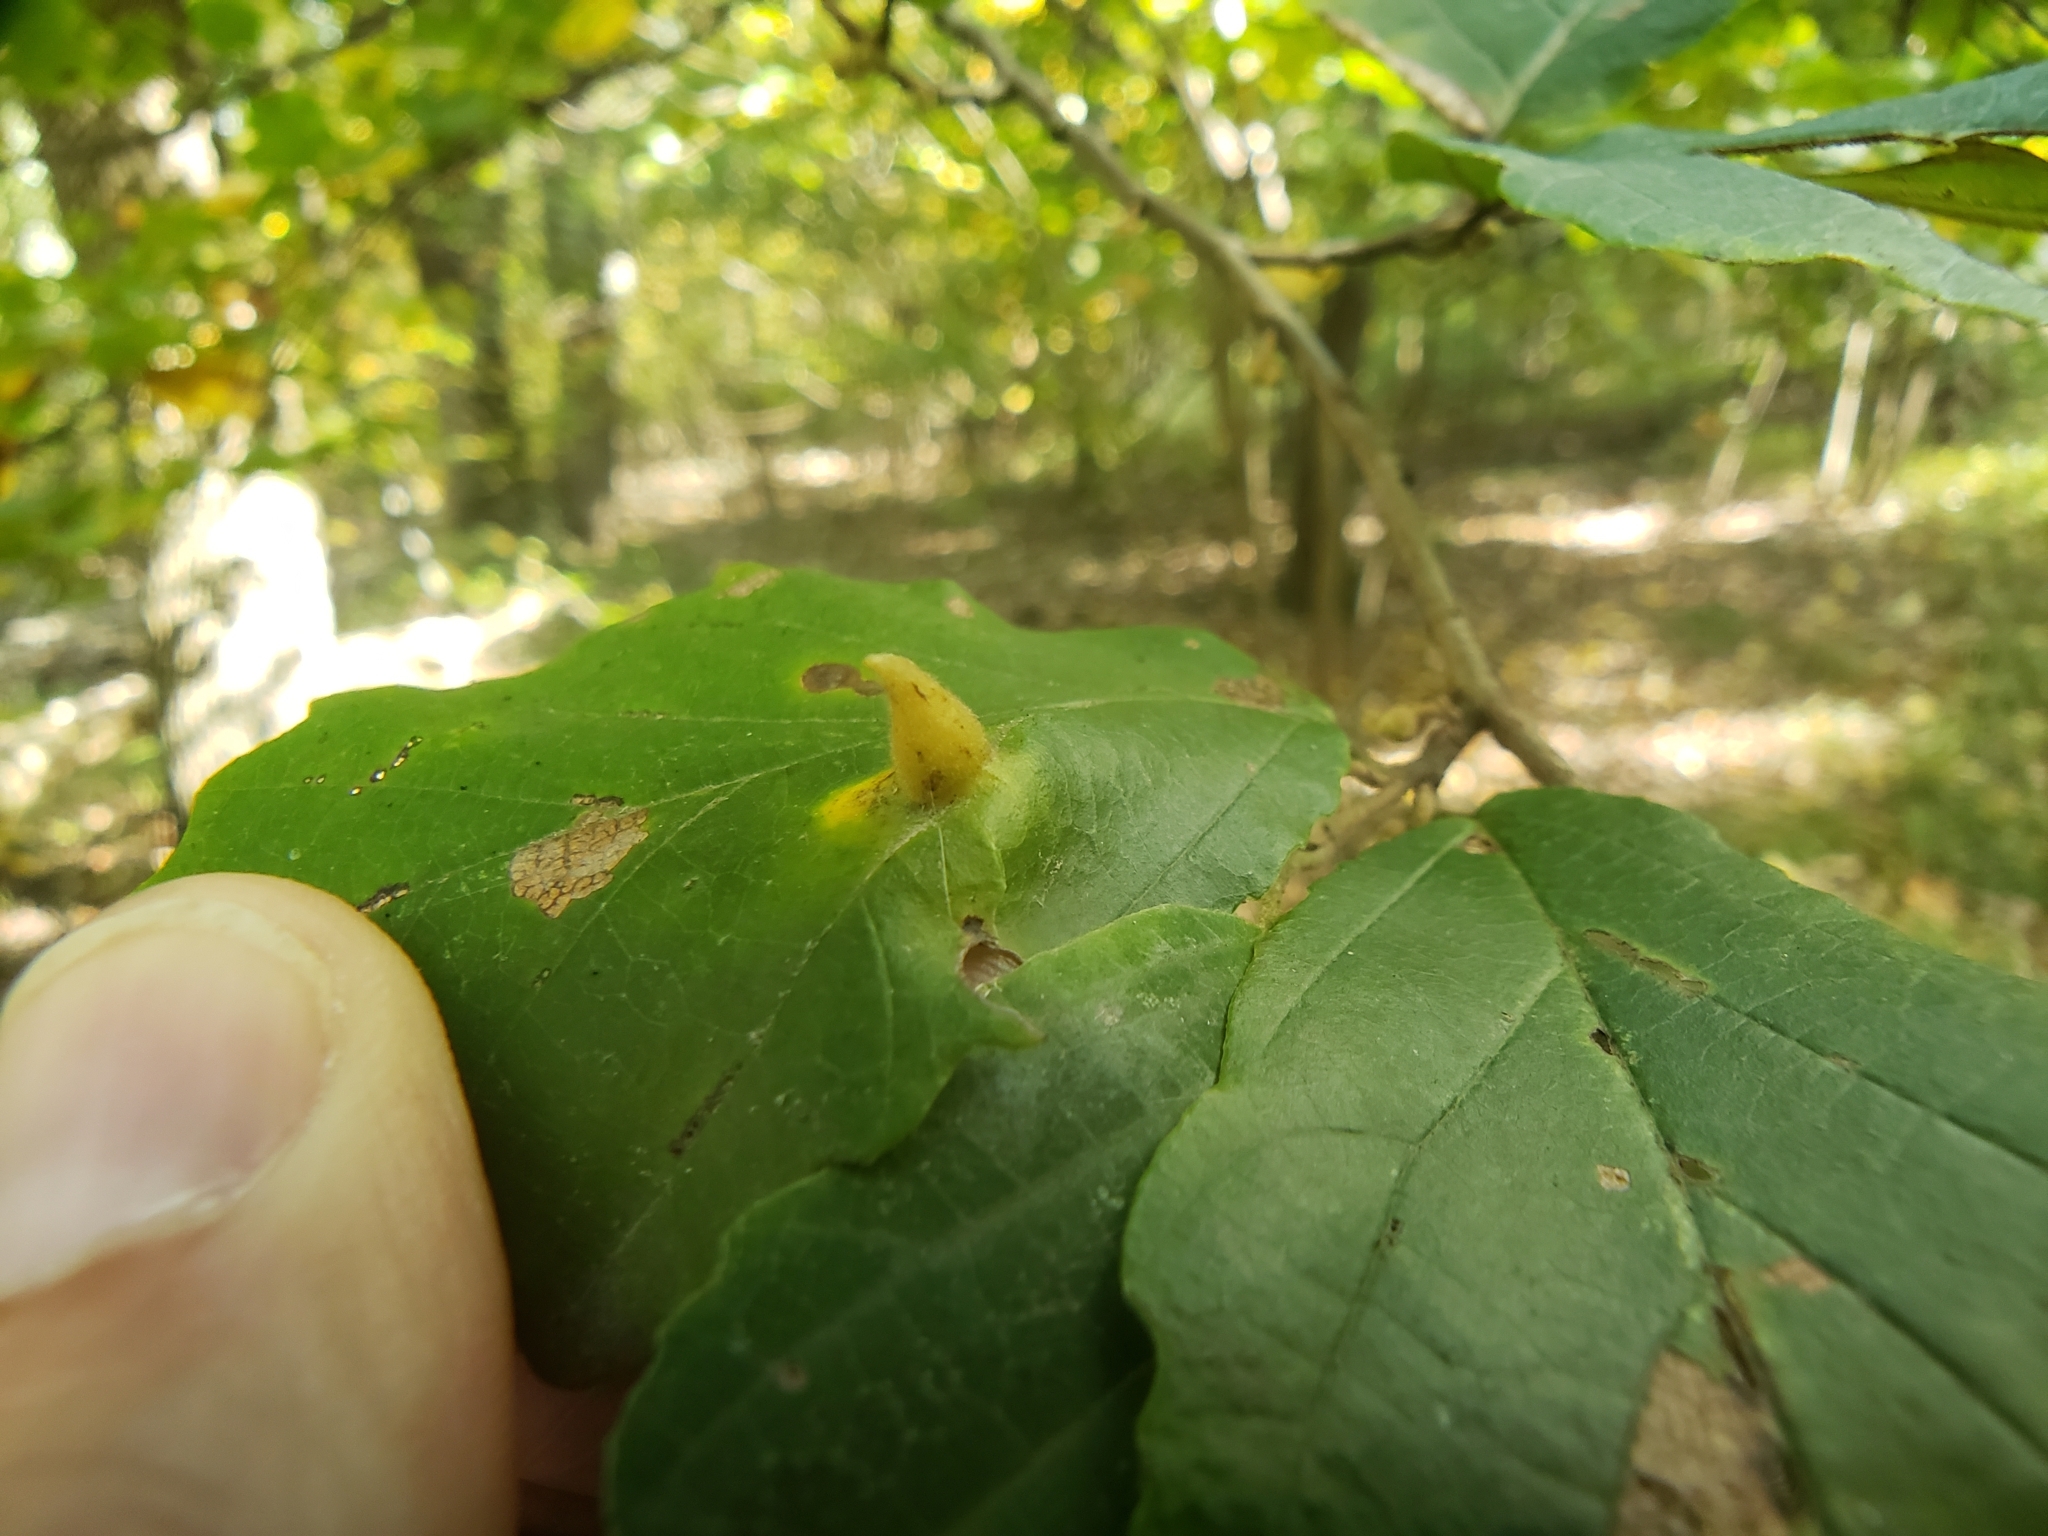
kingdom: Animalia
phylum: Arthropoda
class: Insecta
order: Hemiptera
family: Aphididae
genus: Hormaphis
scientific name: Hormaphis hamamelidis
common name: Witch-hazel cone gall aphid
